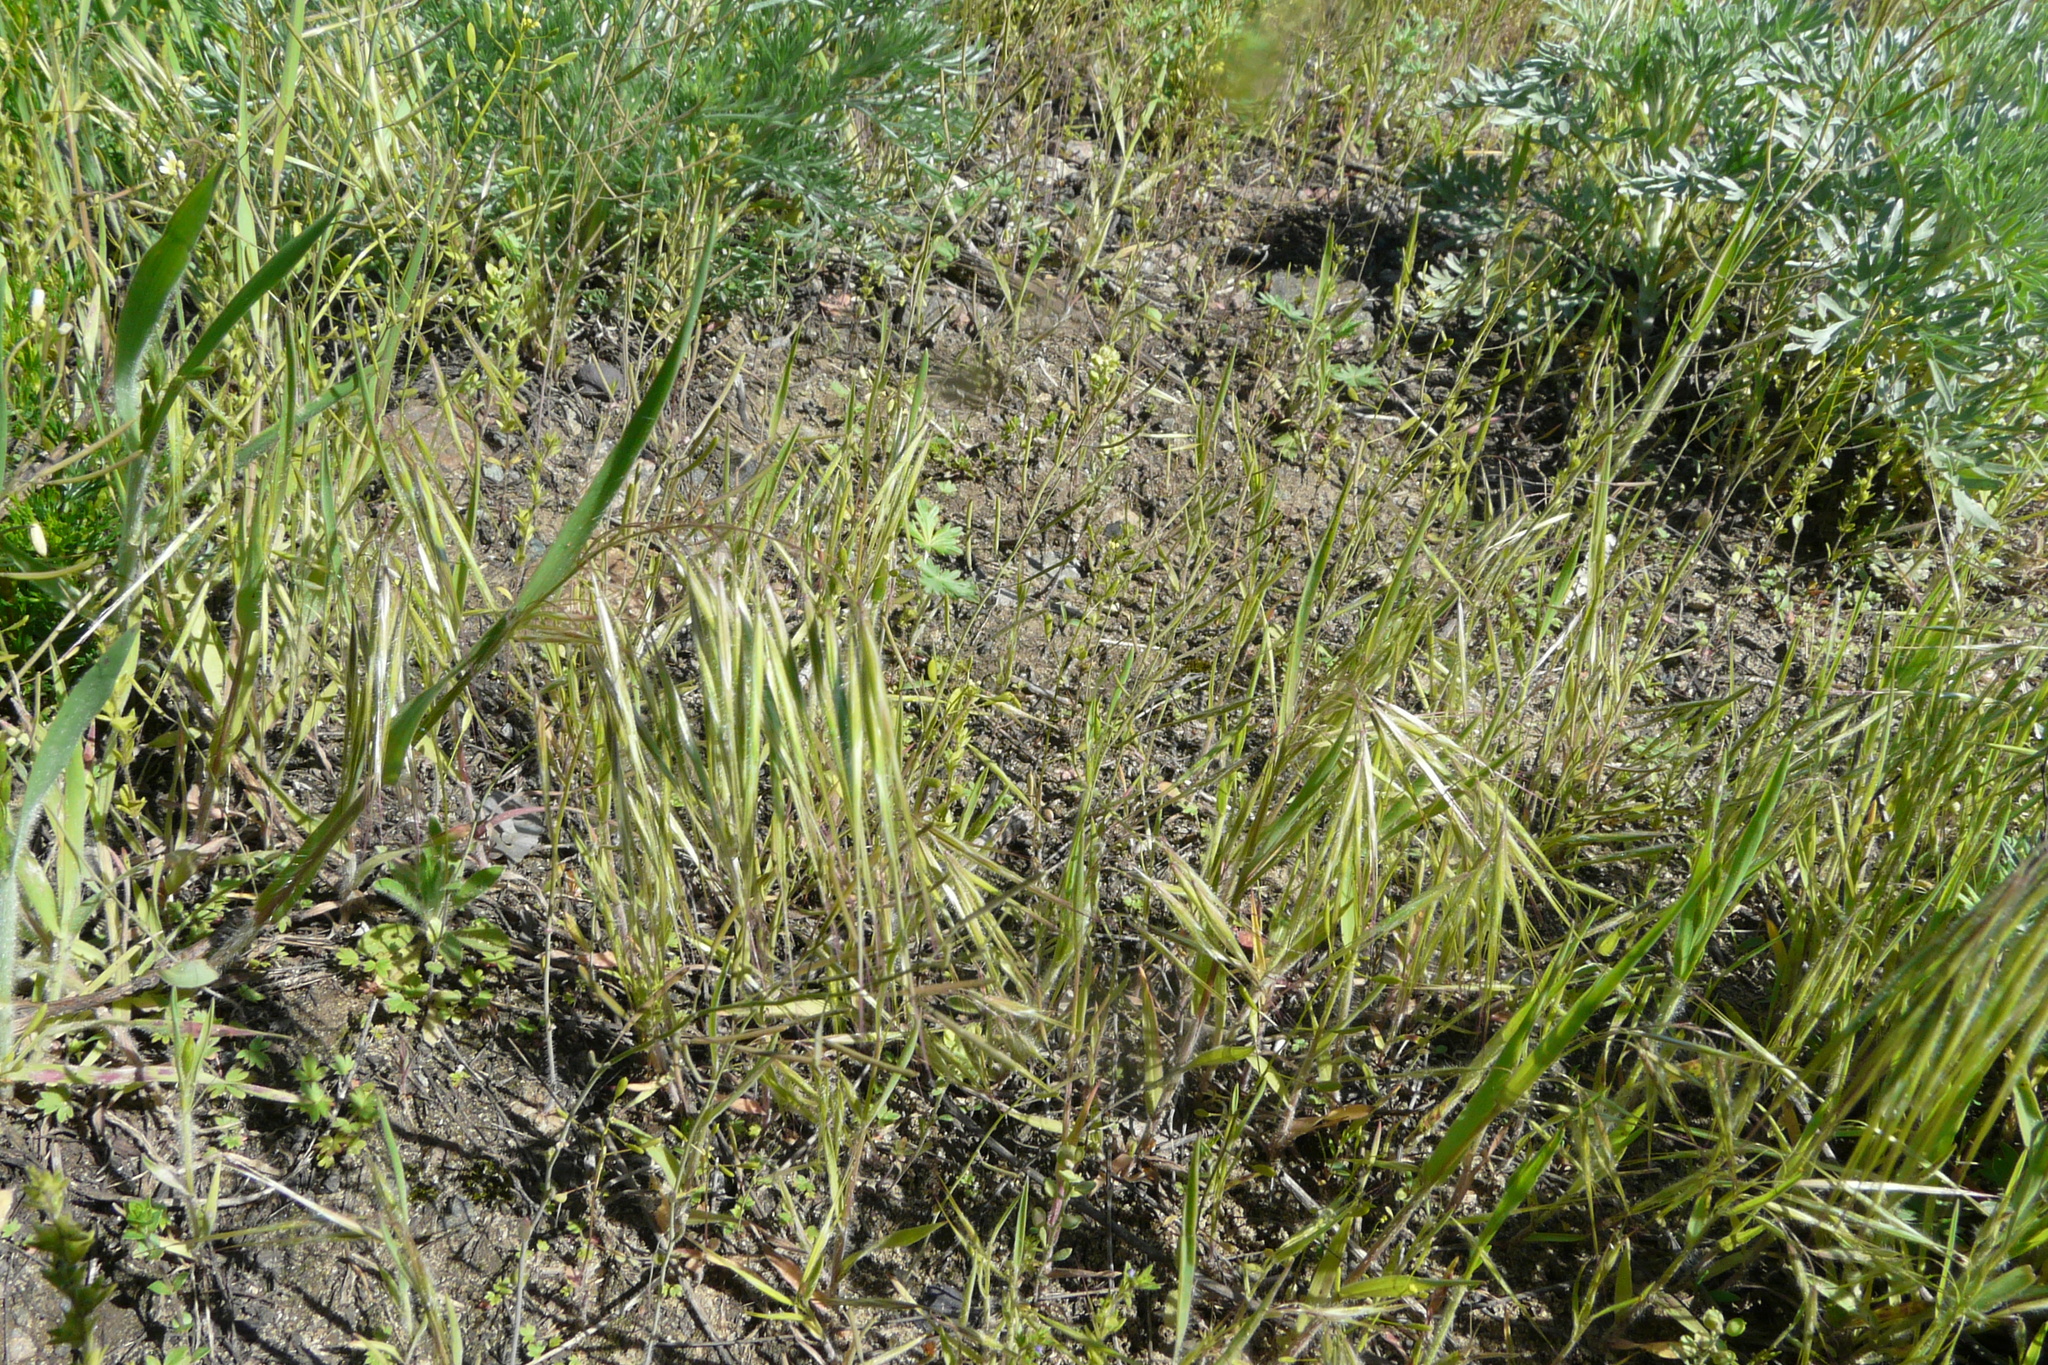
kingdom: Plantae
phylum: Tracheophyta
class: Liliopsida
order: Poales
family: Poaceae
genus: Bromus
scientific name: Bromus tectorum
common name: Cheatgrass
